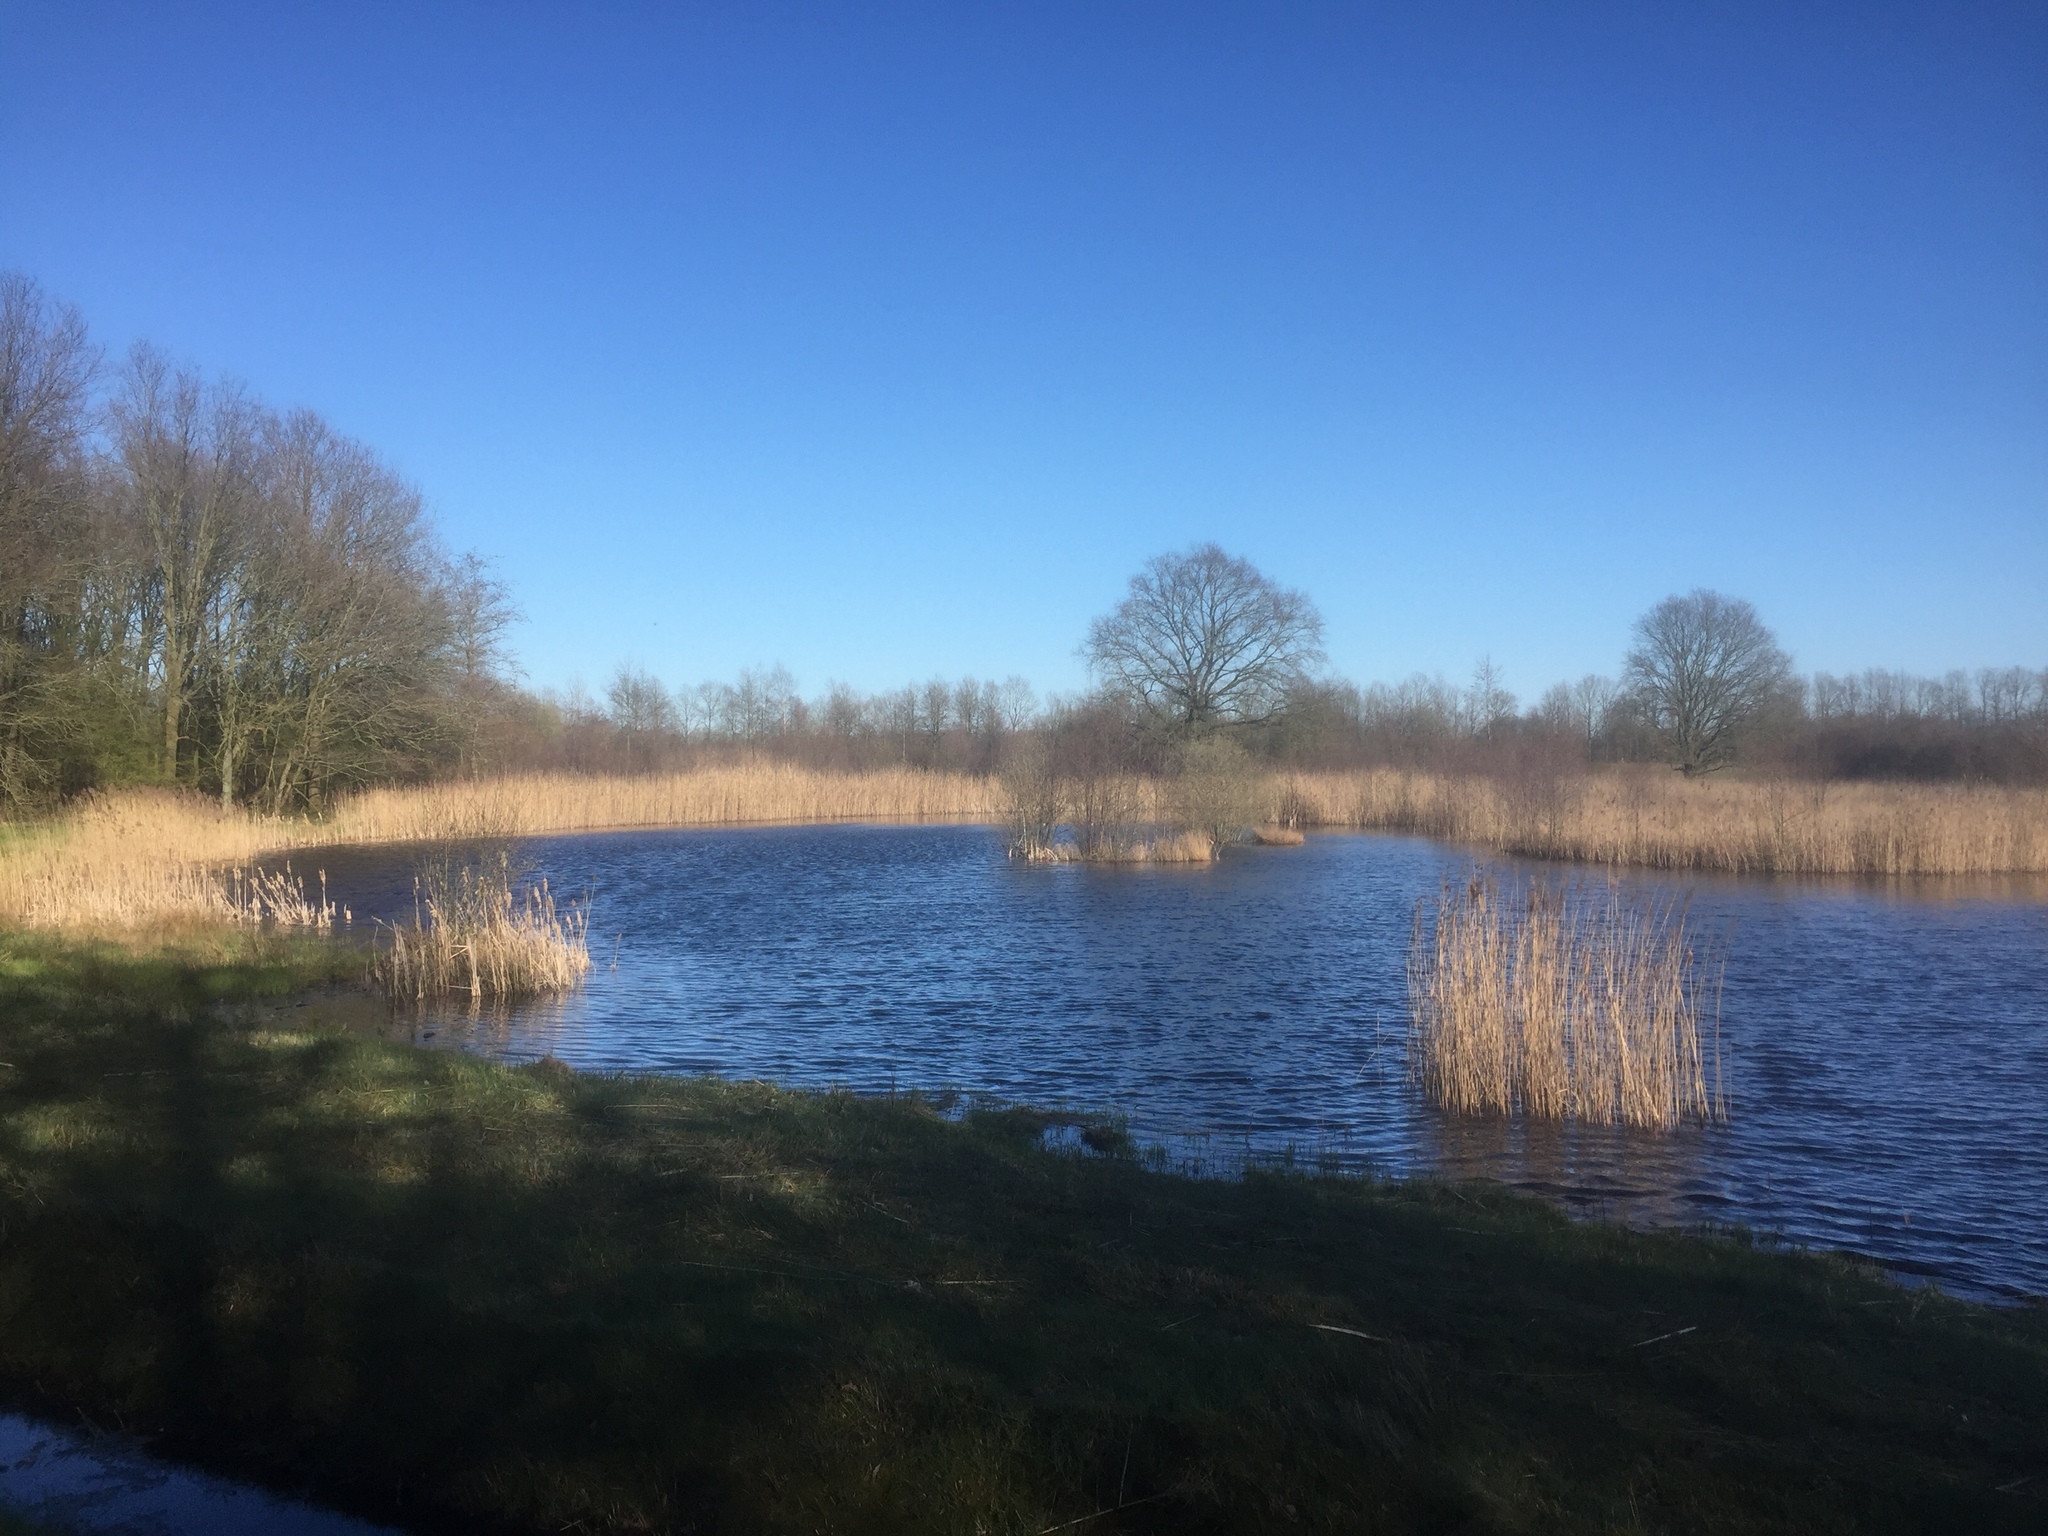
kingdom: Plantae
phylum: Tracheophyta
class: Liliopsida
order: Poales
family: Poaceae
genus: Phragmites
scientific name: Phragmites australis
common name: Common reed
